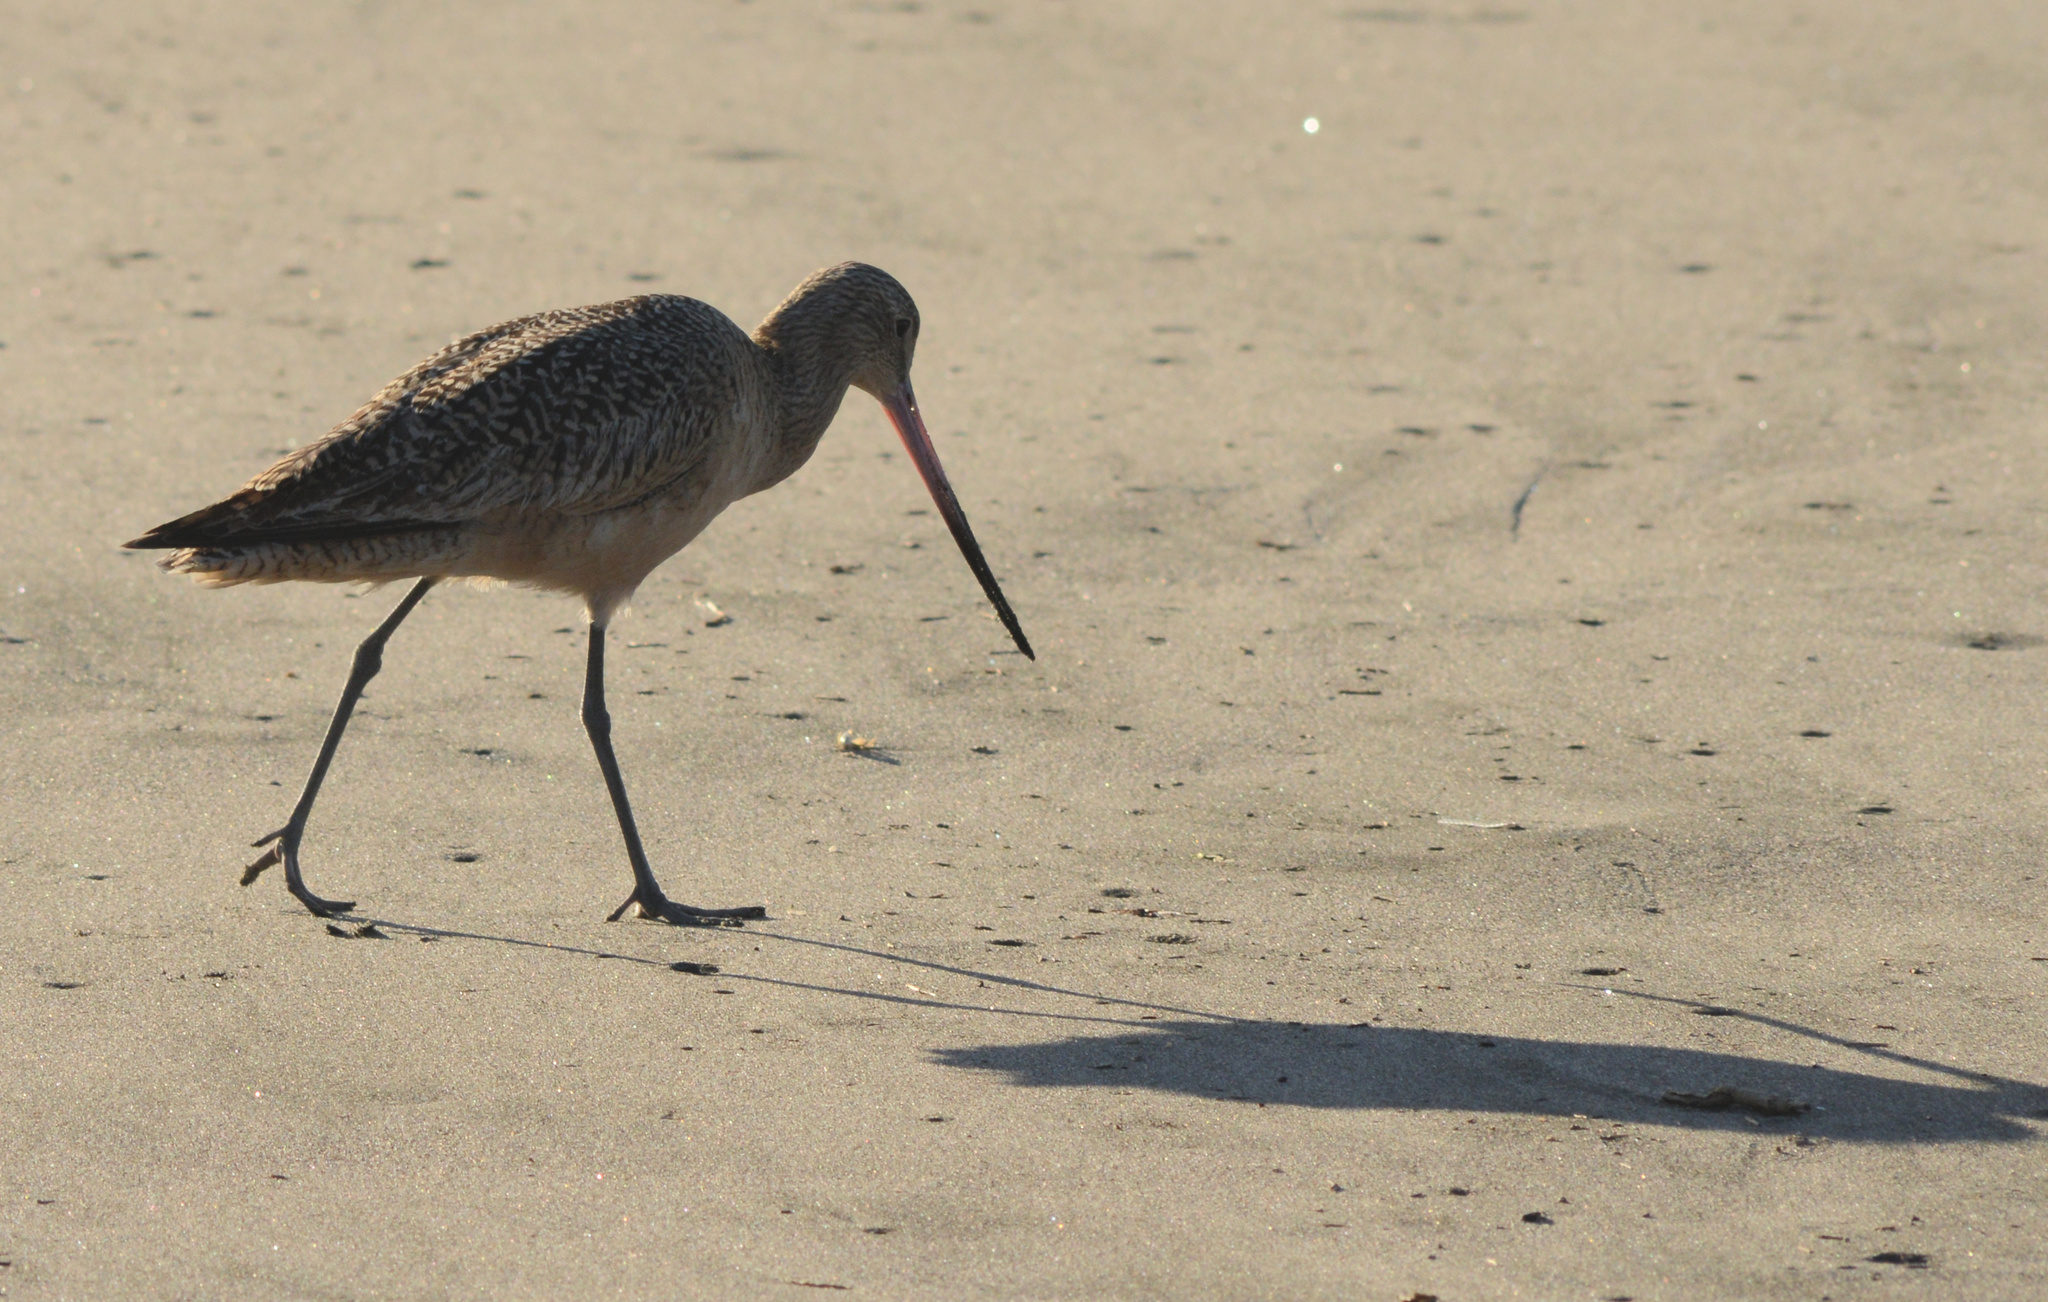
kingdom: Animalia
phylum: Chordata
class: Aves
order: Charadriiformes
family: Scolopacidae
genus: Limosa
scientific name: Limosa fedoa
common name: Marbled godwit
